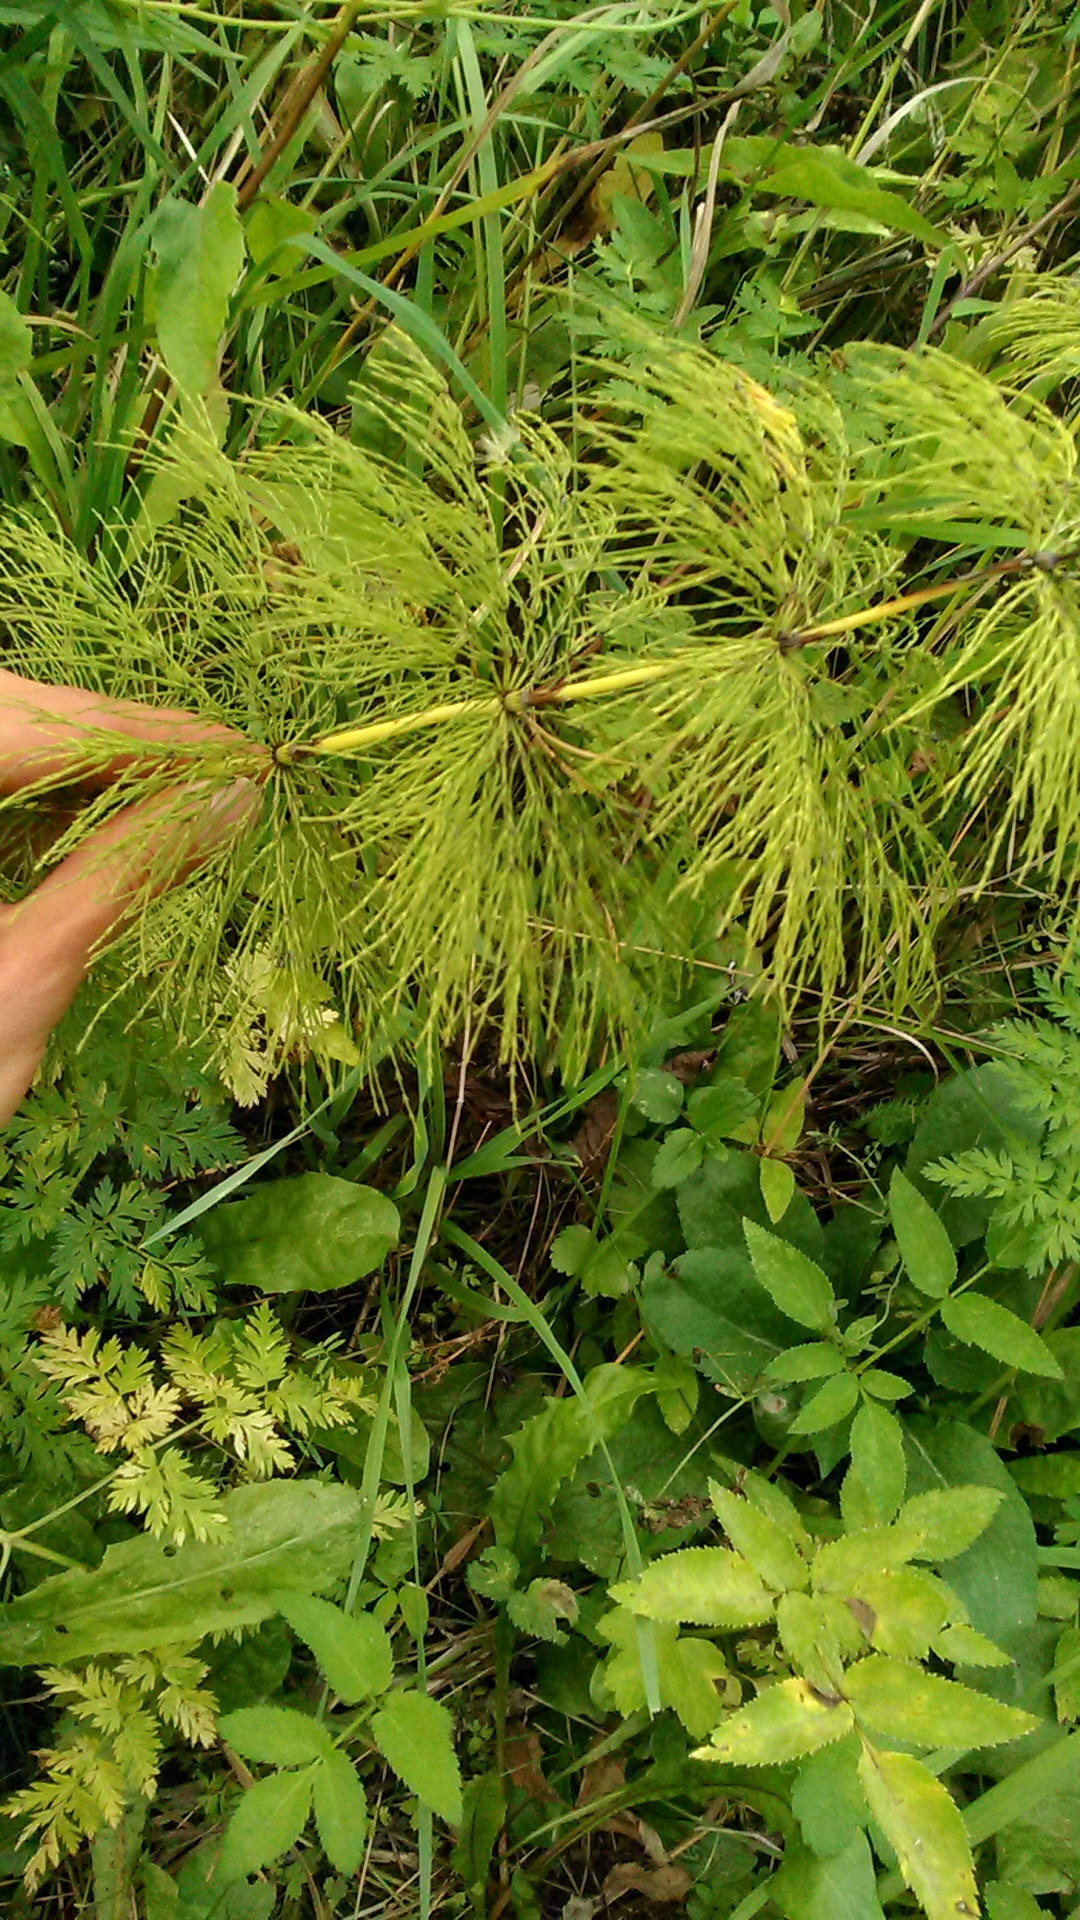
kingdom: Plantae
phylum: Tracheophyta
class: Polypodiopsida
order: Equisetales
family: Equisetaceae
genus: Equisetum
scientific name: Equisetum sylvaticum
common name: Wood horsetail
